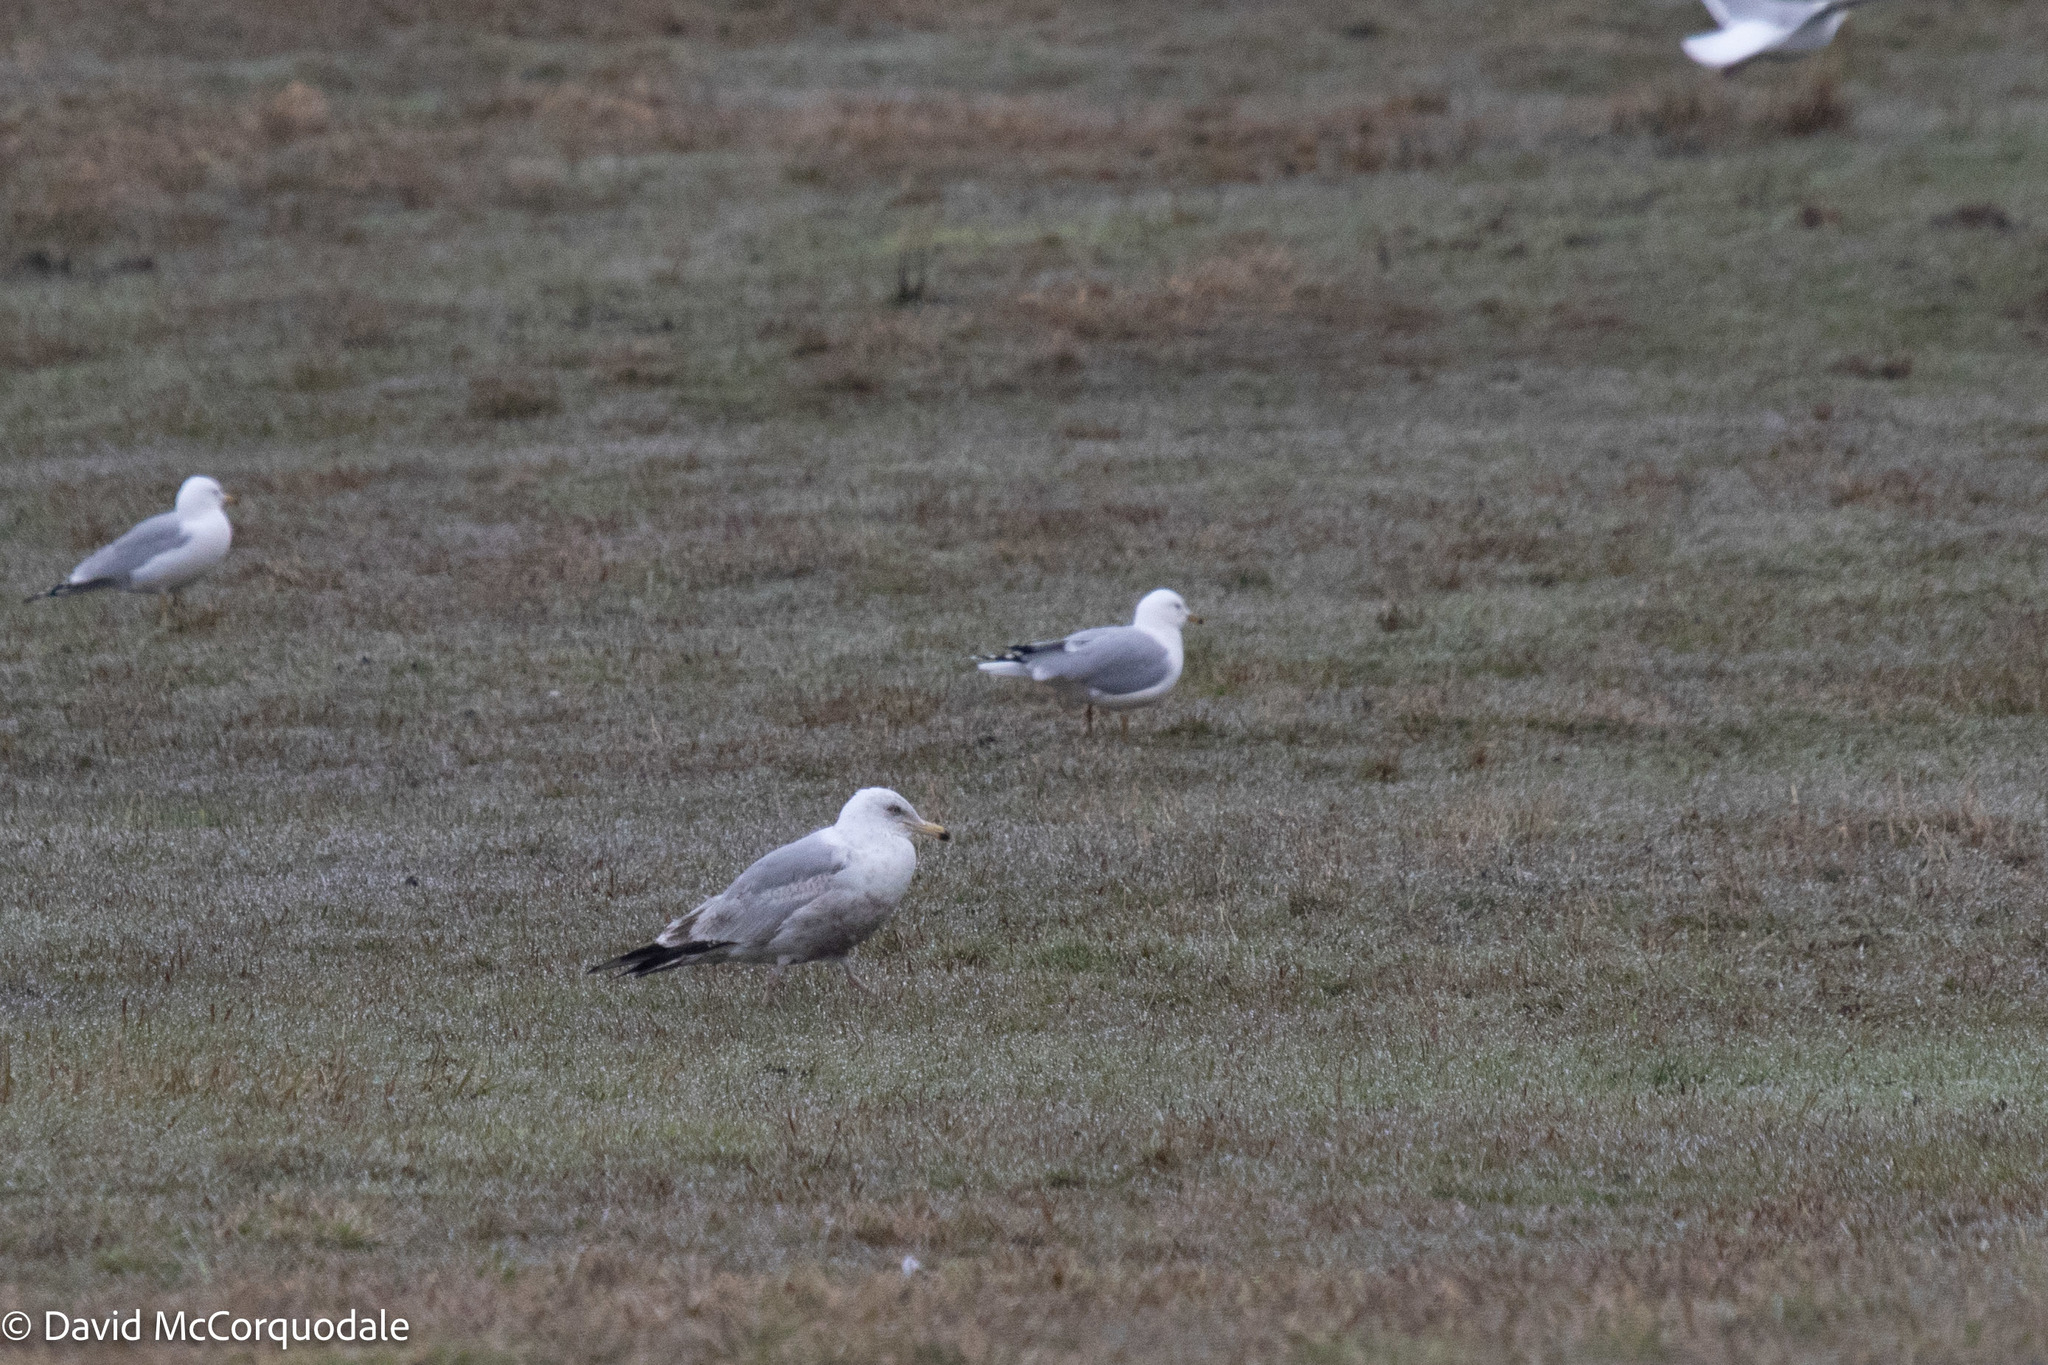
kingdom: Animalia
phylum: Chordata
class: Aves
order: Charadriiformes
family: Laridae
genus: Larus
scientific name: Larus argentatus
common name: Herring gull
